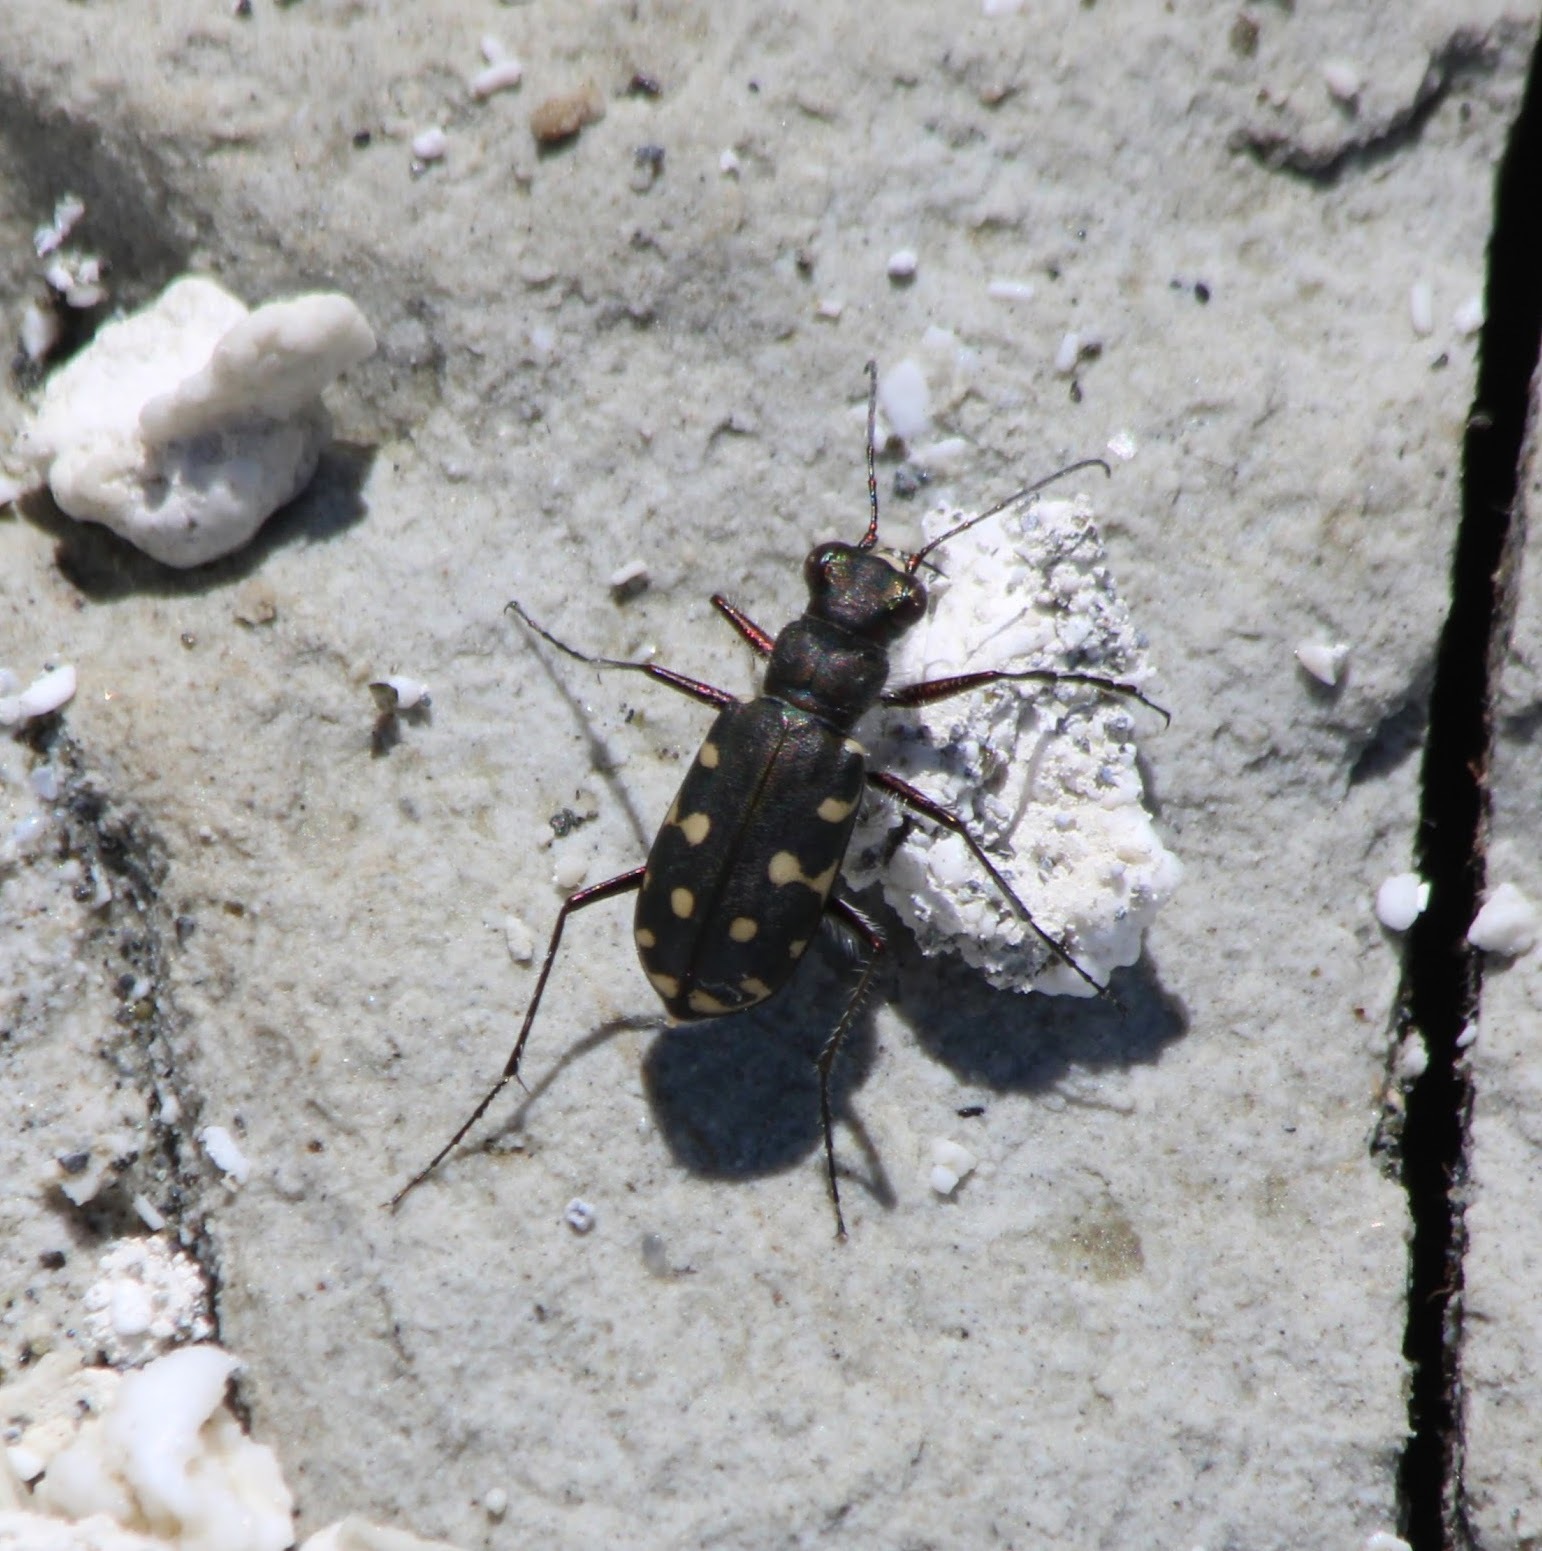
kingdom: Animalia
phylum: Arthropoda
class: Insecta
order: Coleoptera
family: Carabidae
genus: Cicindela
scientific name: Cicindela littoralis
